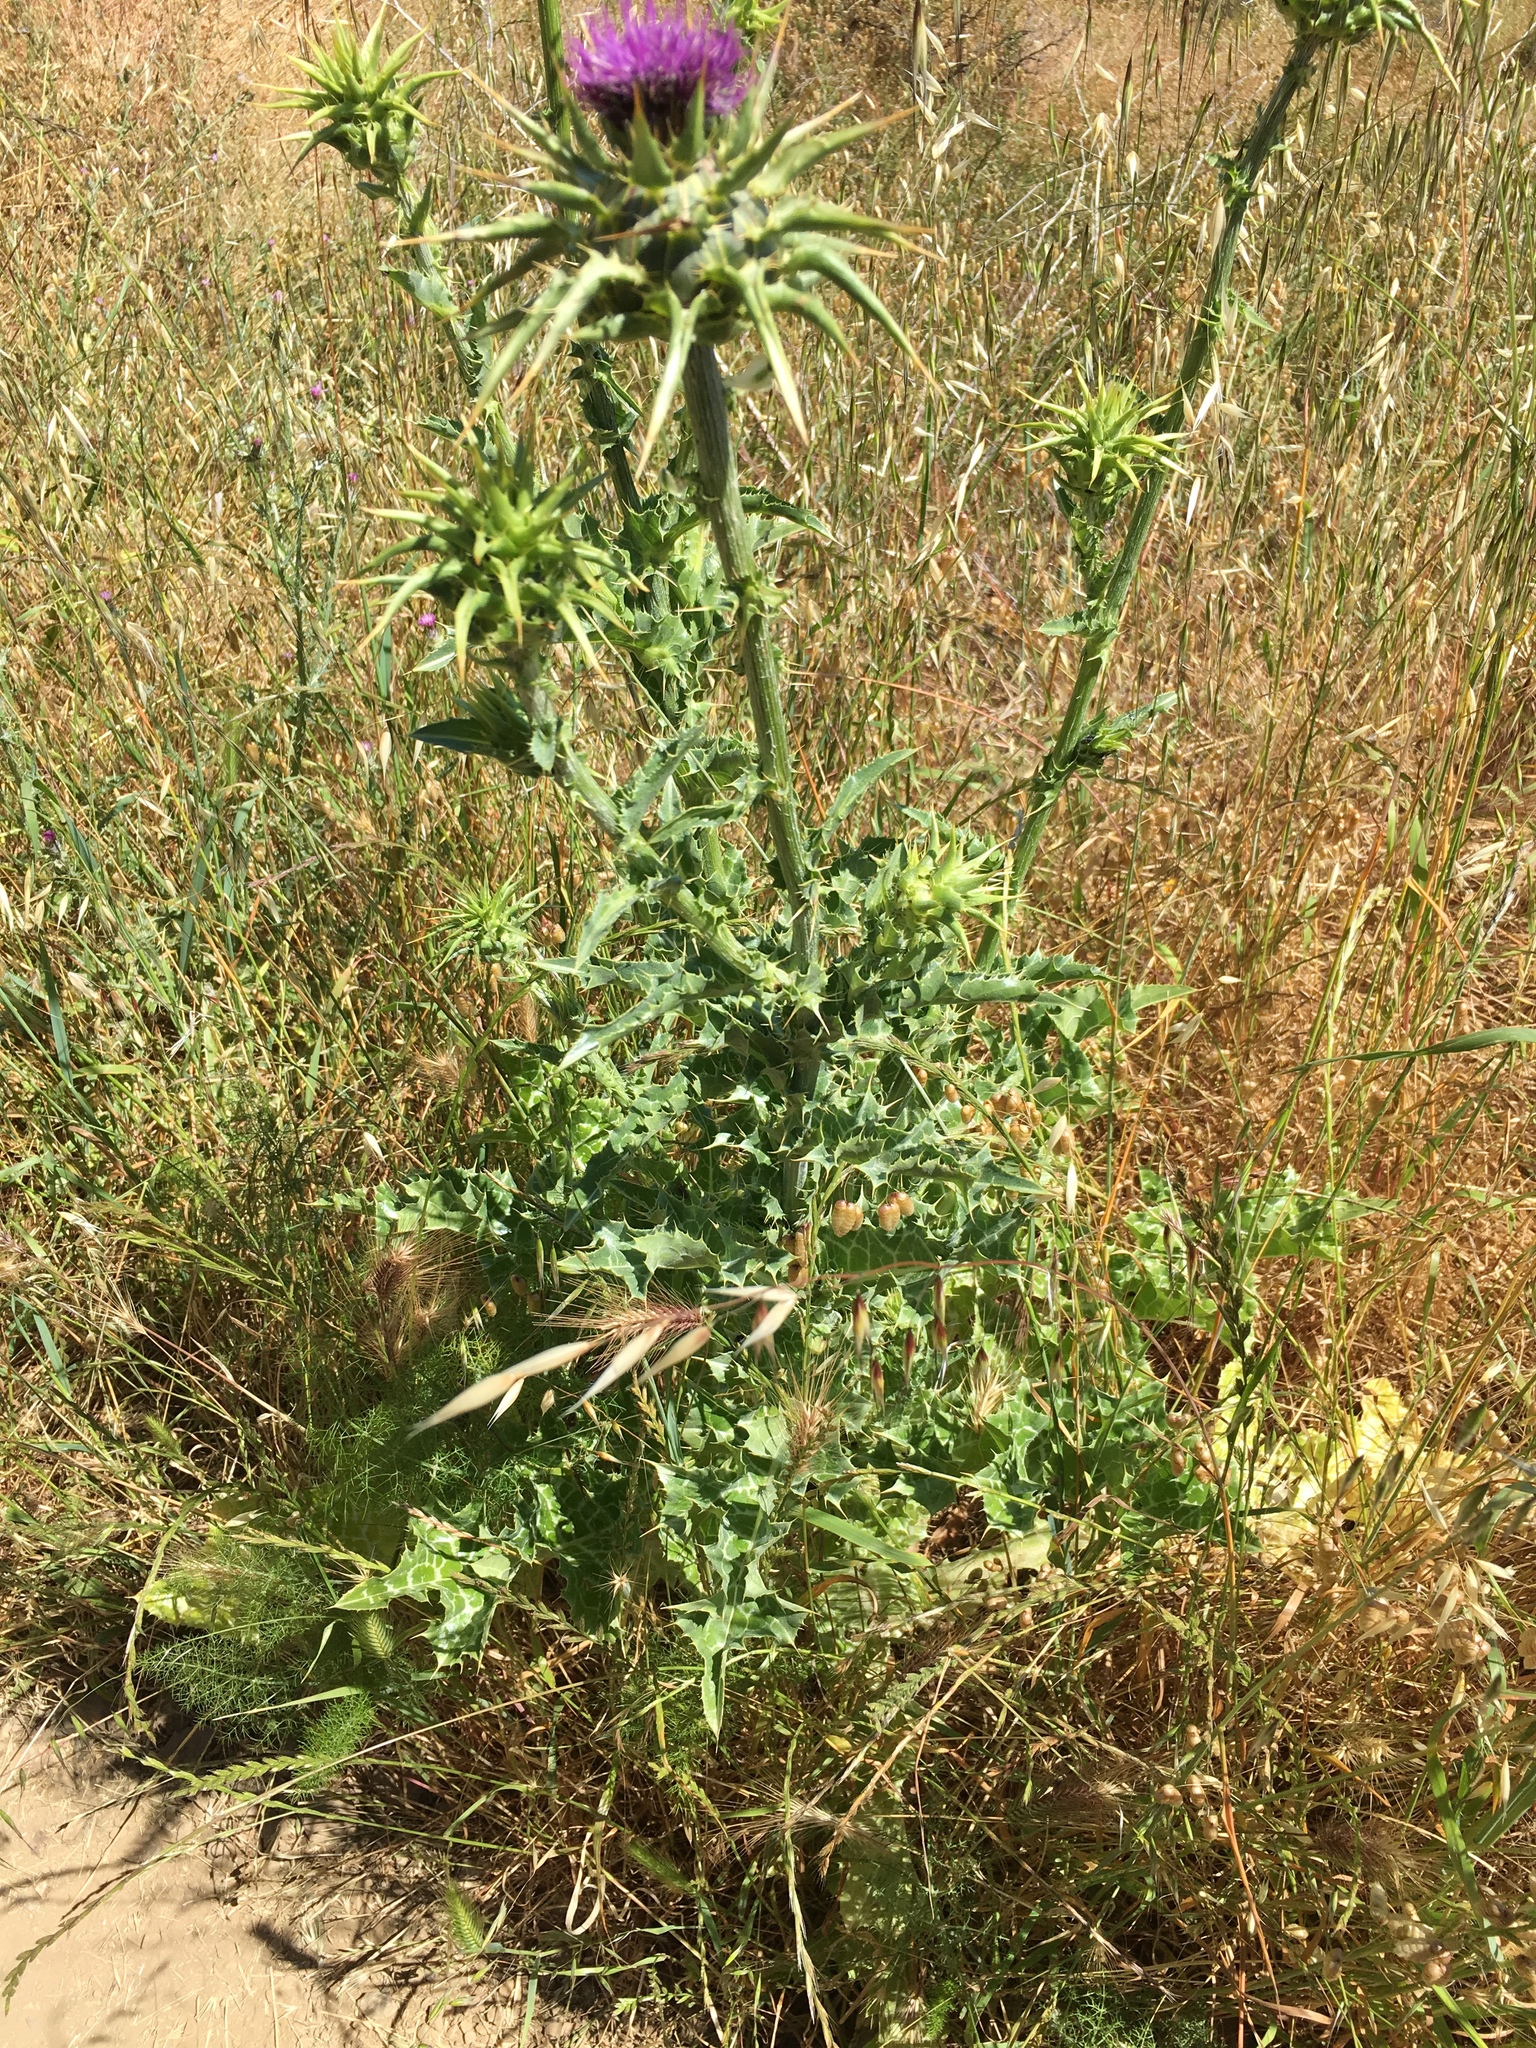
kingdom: Plantae
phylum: Tracheophyta
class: Magnoliopsida
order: Asterales
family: Asteraceae
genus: Silybum
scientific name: Silybum marianum
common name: Milk thistle
